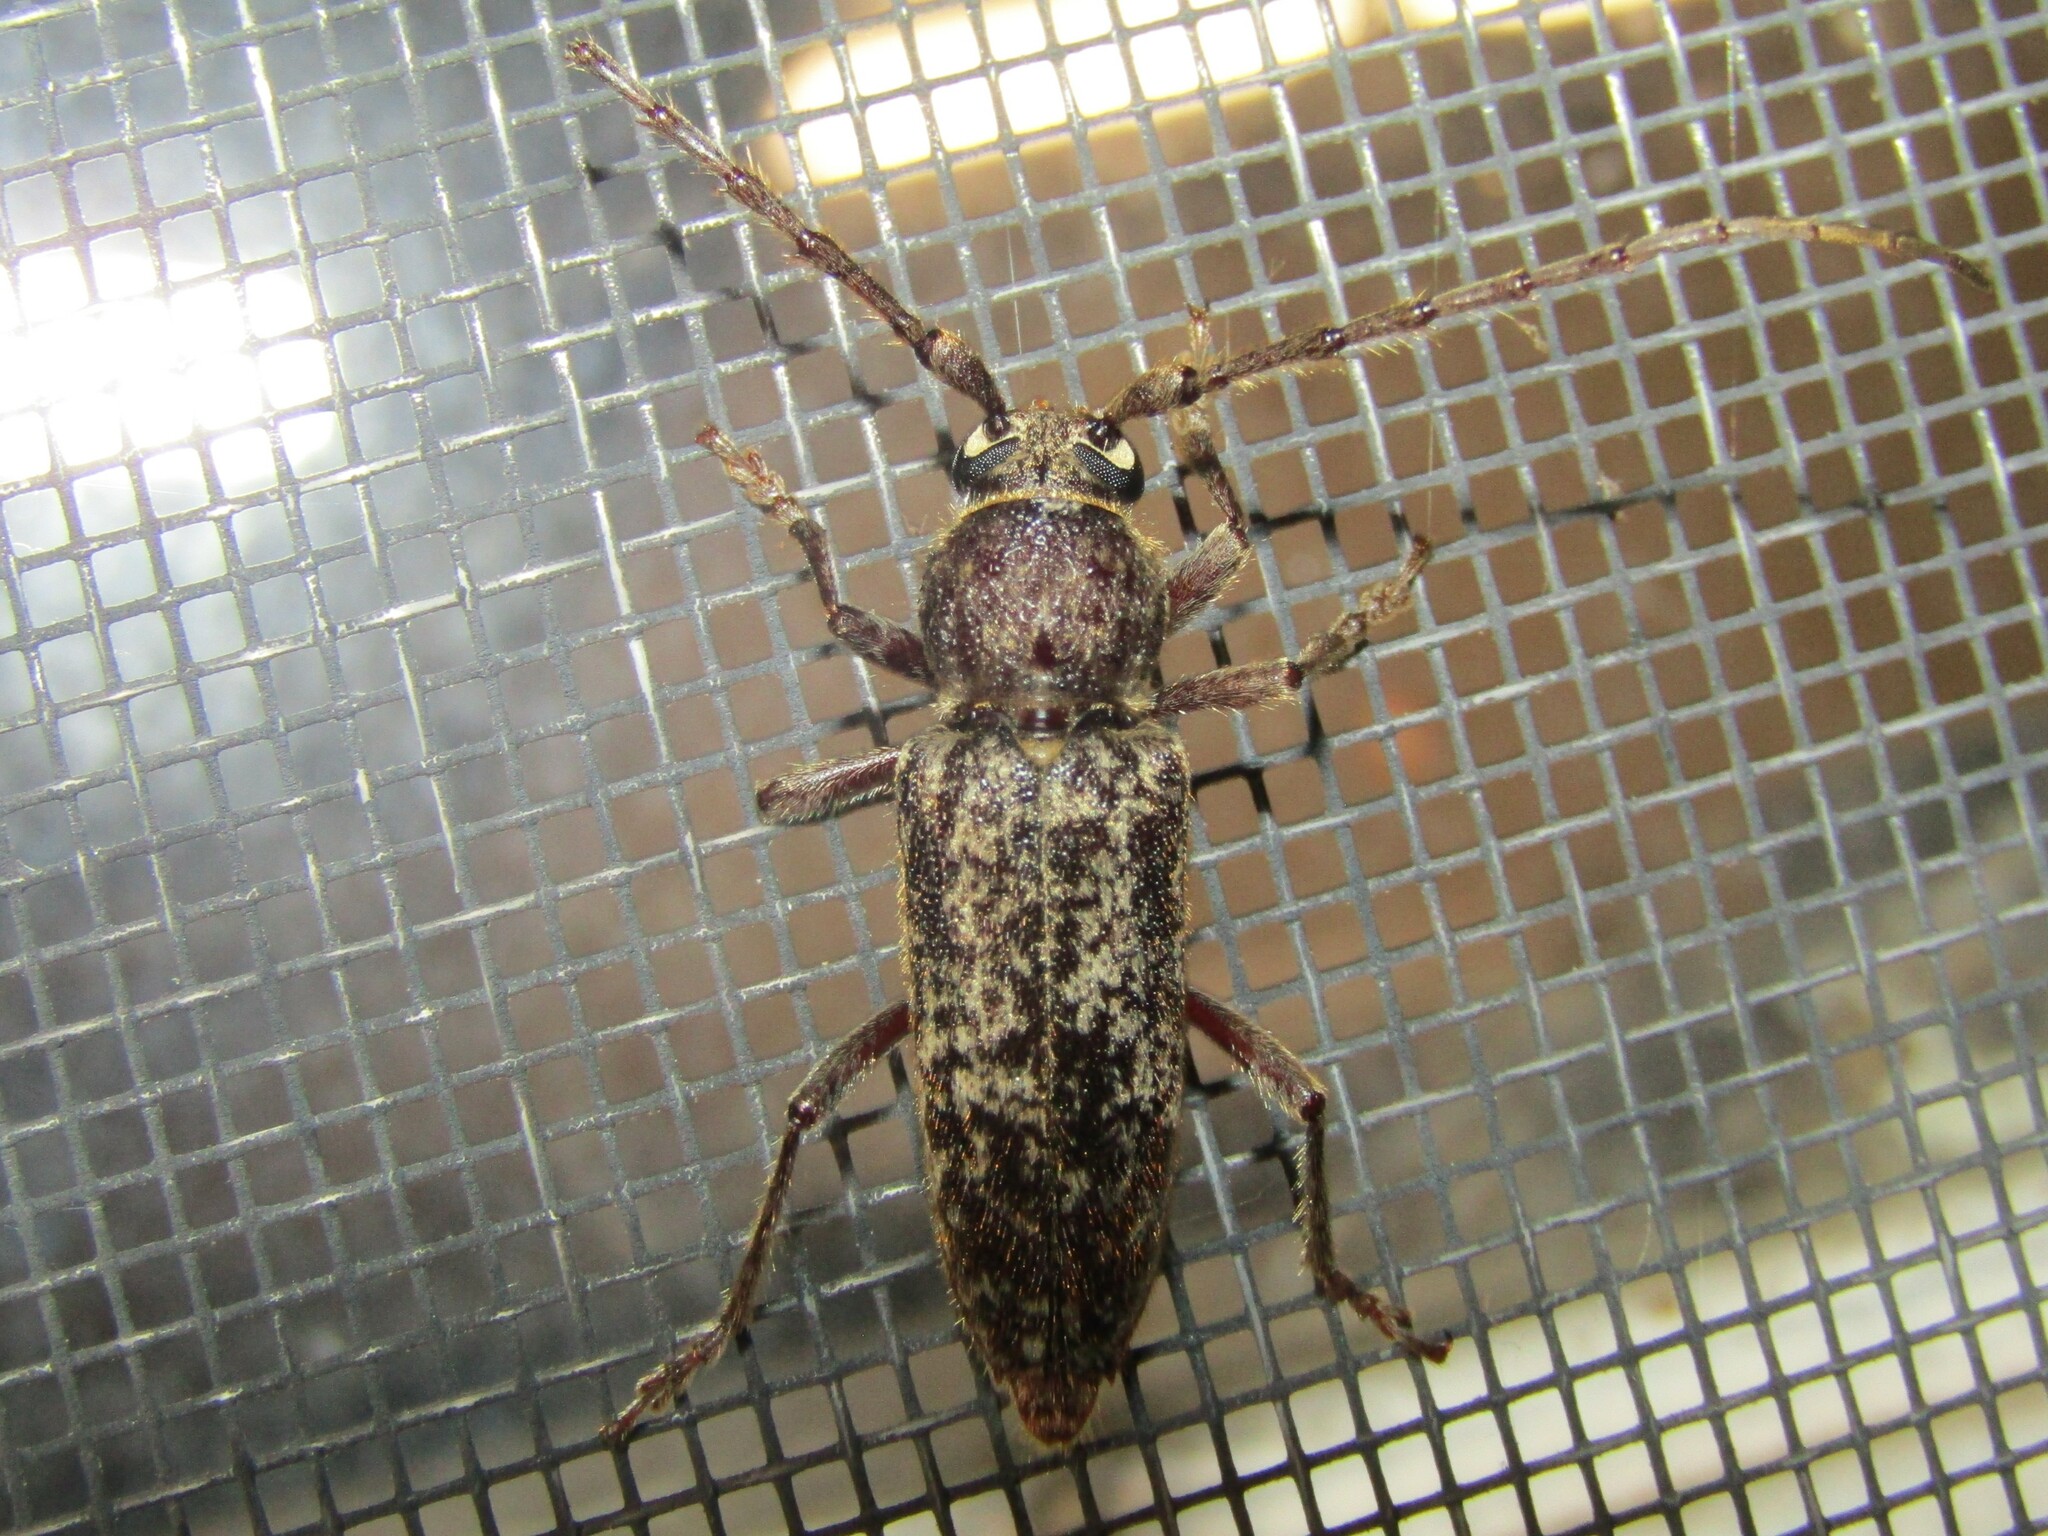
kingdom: Animalia
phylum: Arthropoda
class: Insecta
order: Coleoptera
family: Cerambycidae
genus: Enaphalodes
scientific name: Enaphalodes atomarius
